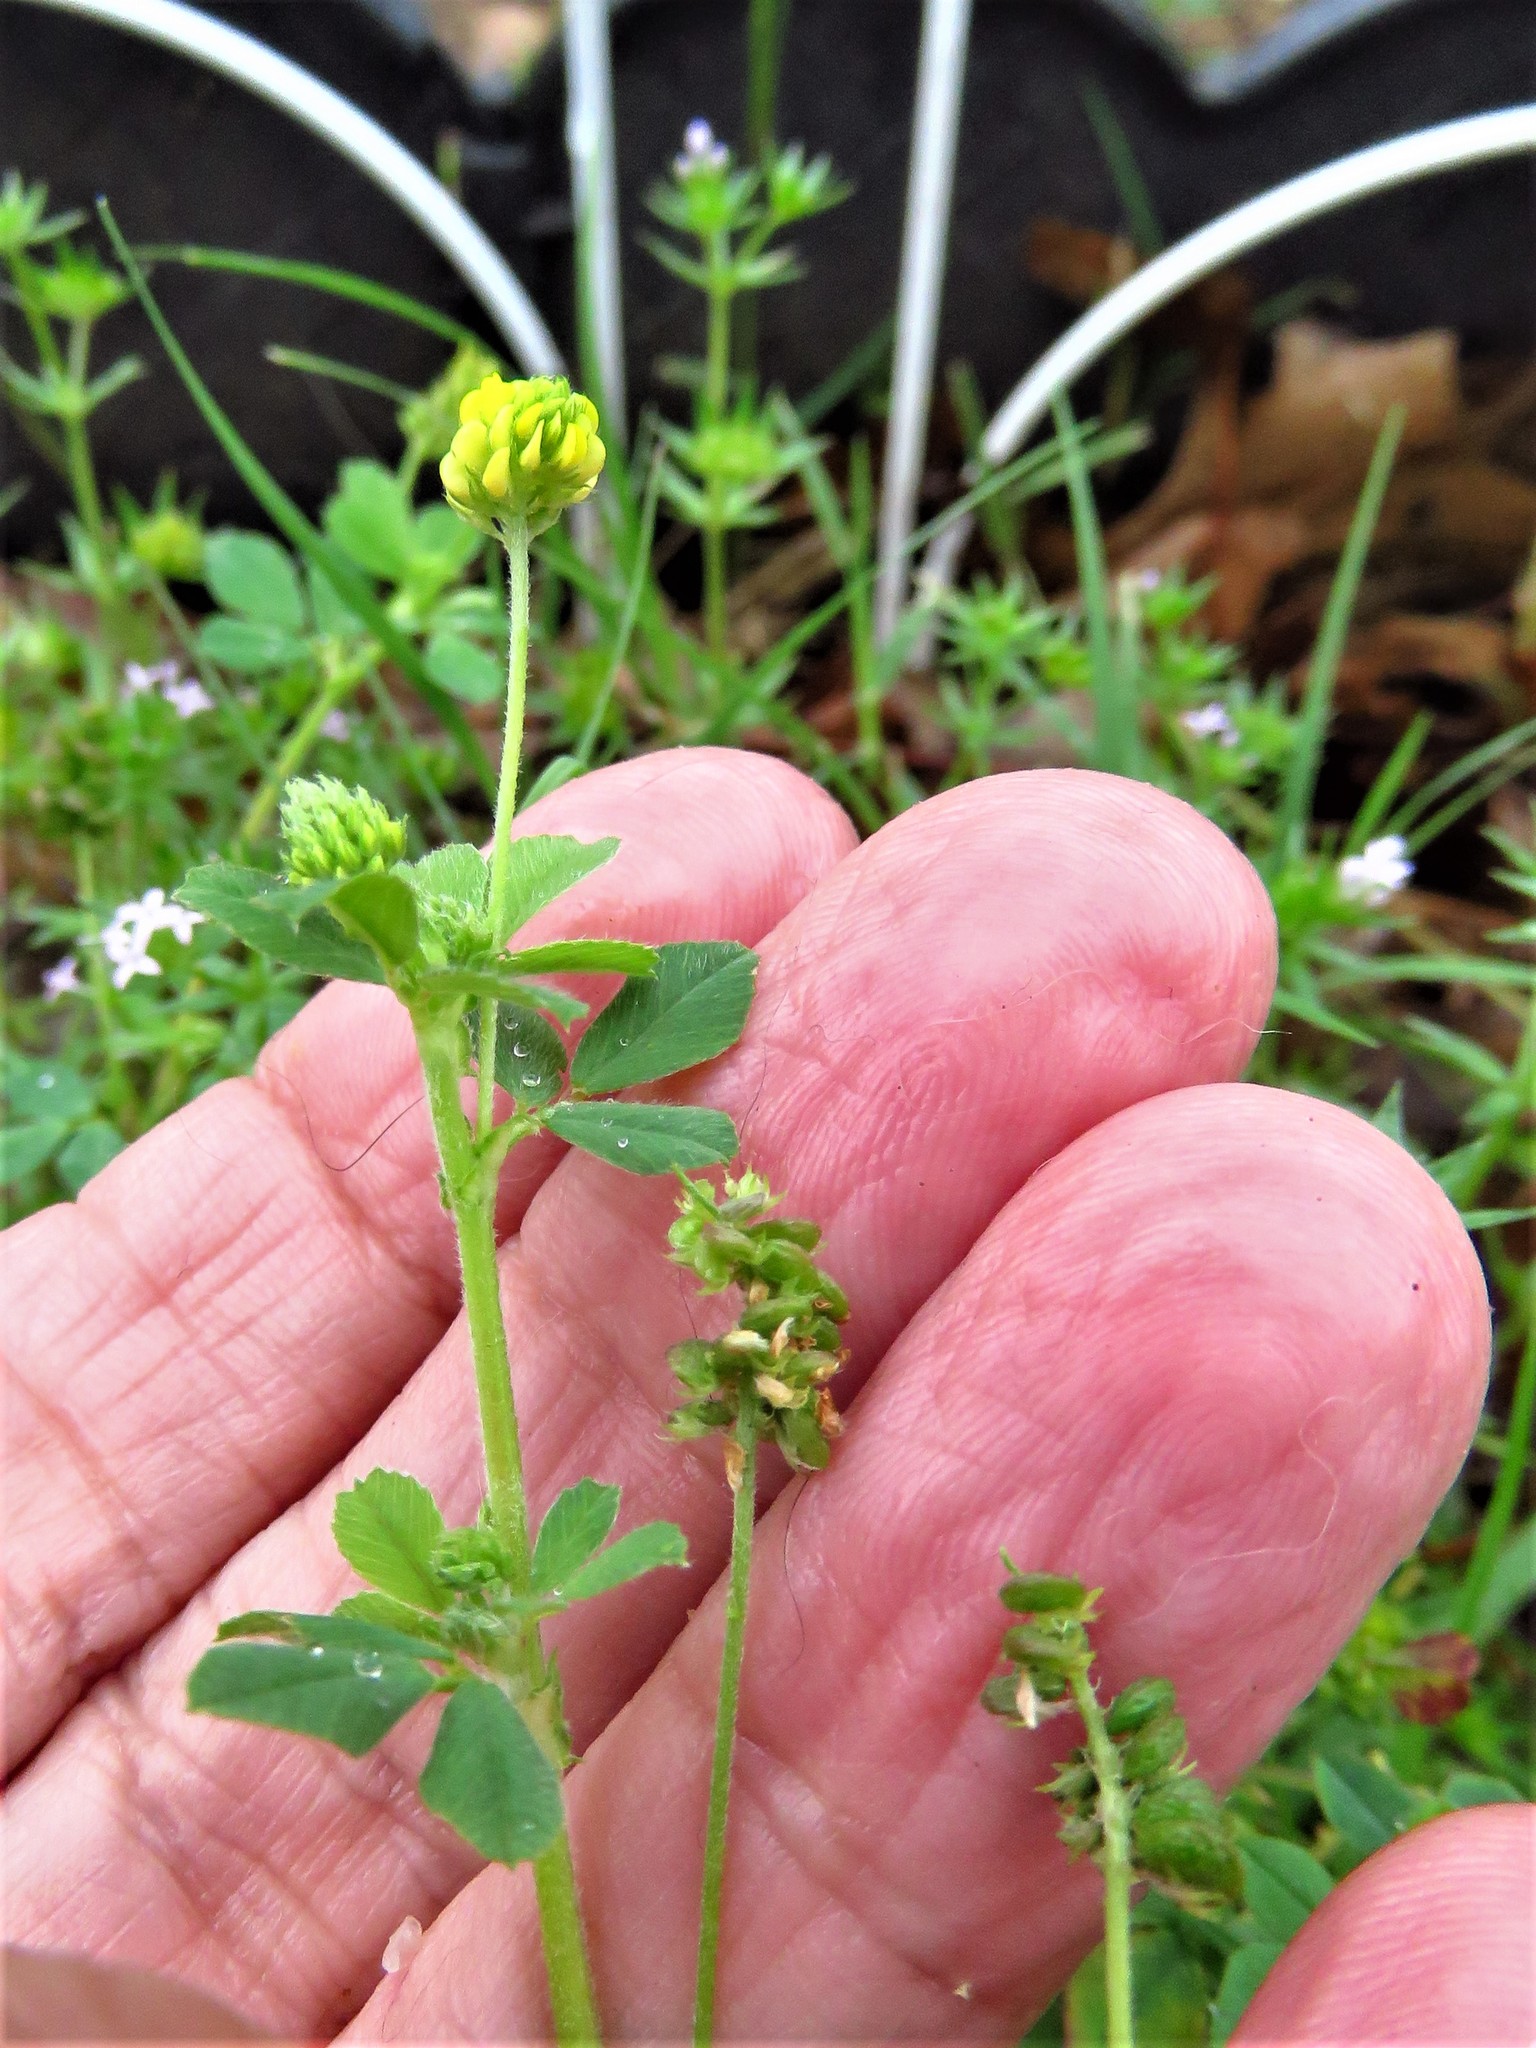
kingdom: Plantae
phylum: Tracheophyta
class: Magnoliopsida
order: Fabales
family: Fabaceae
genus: Medicago
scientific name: Medicago lupulina
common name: Black medick
